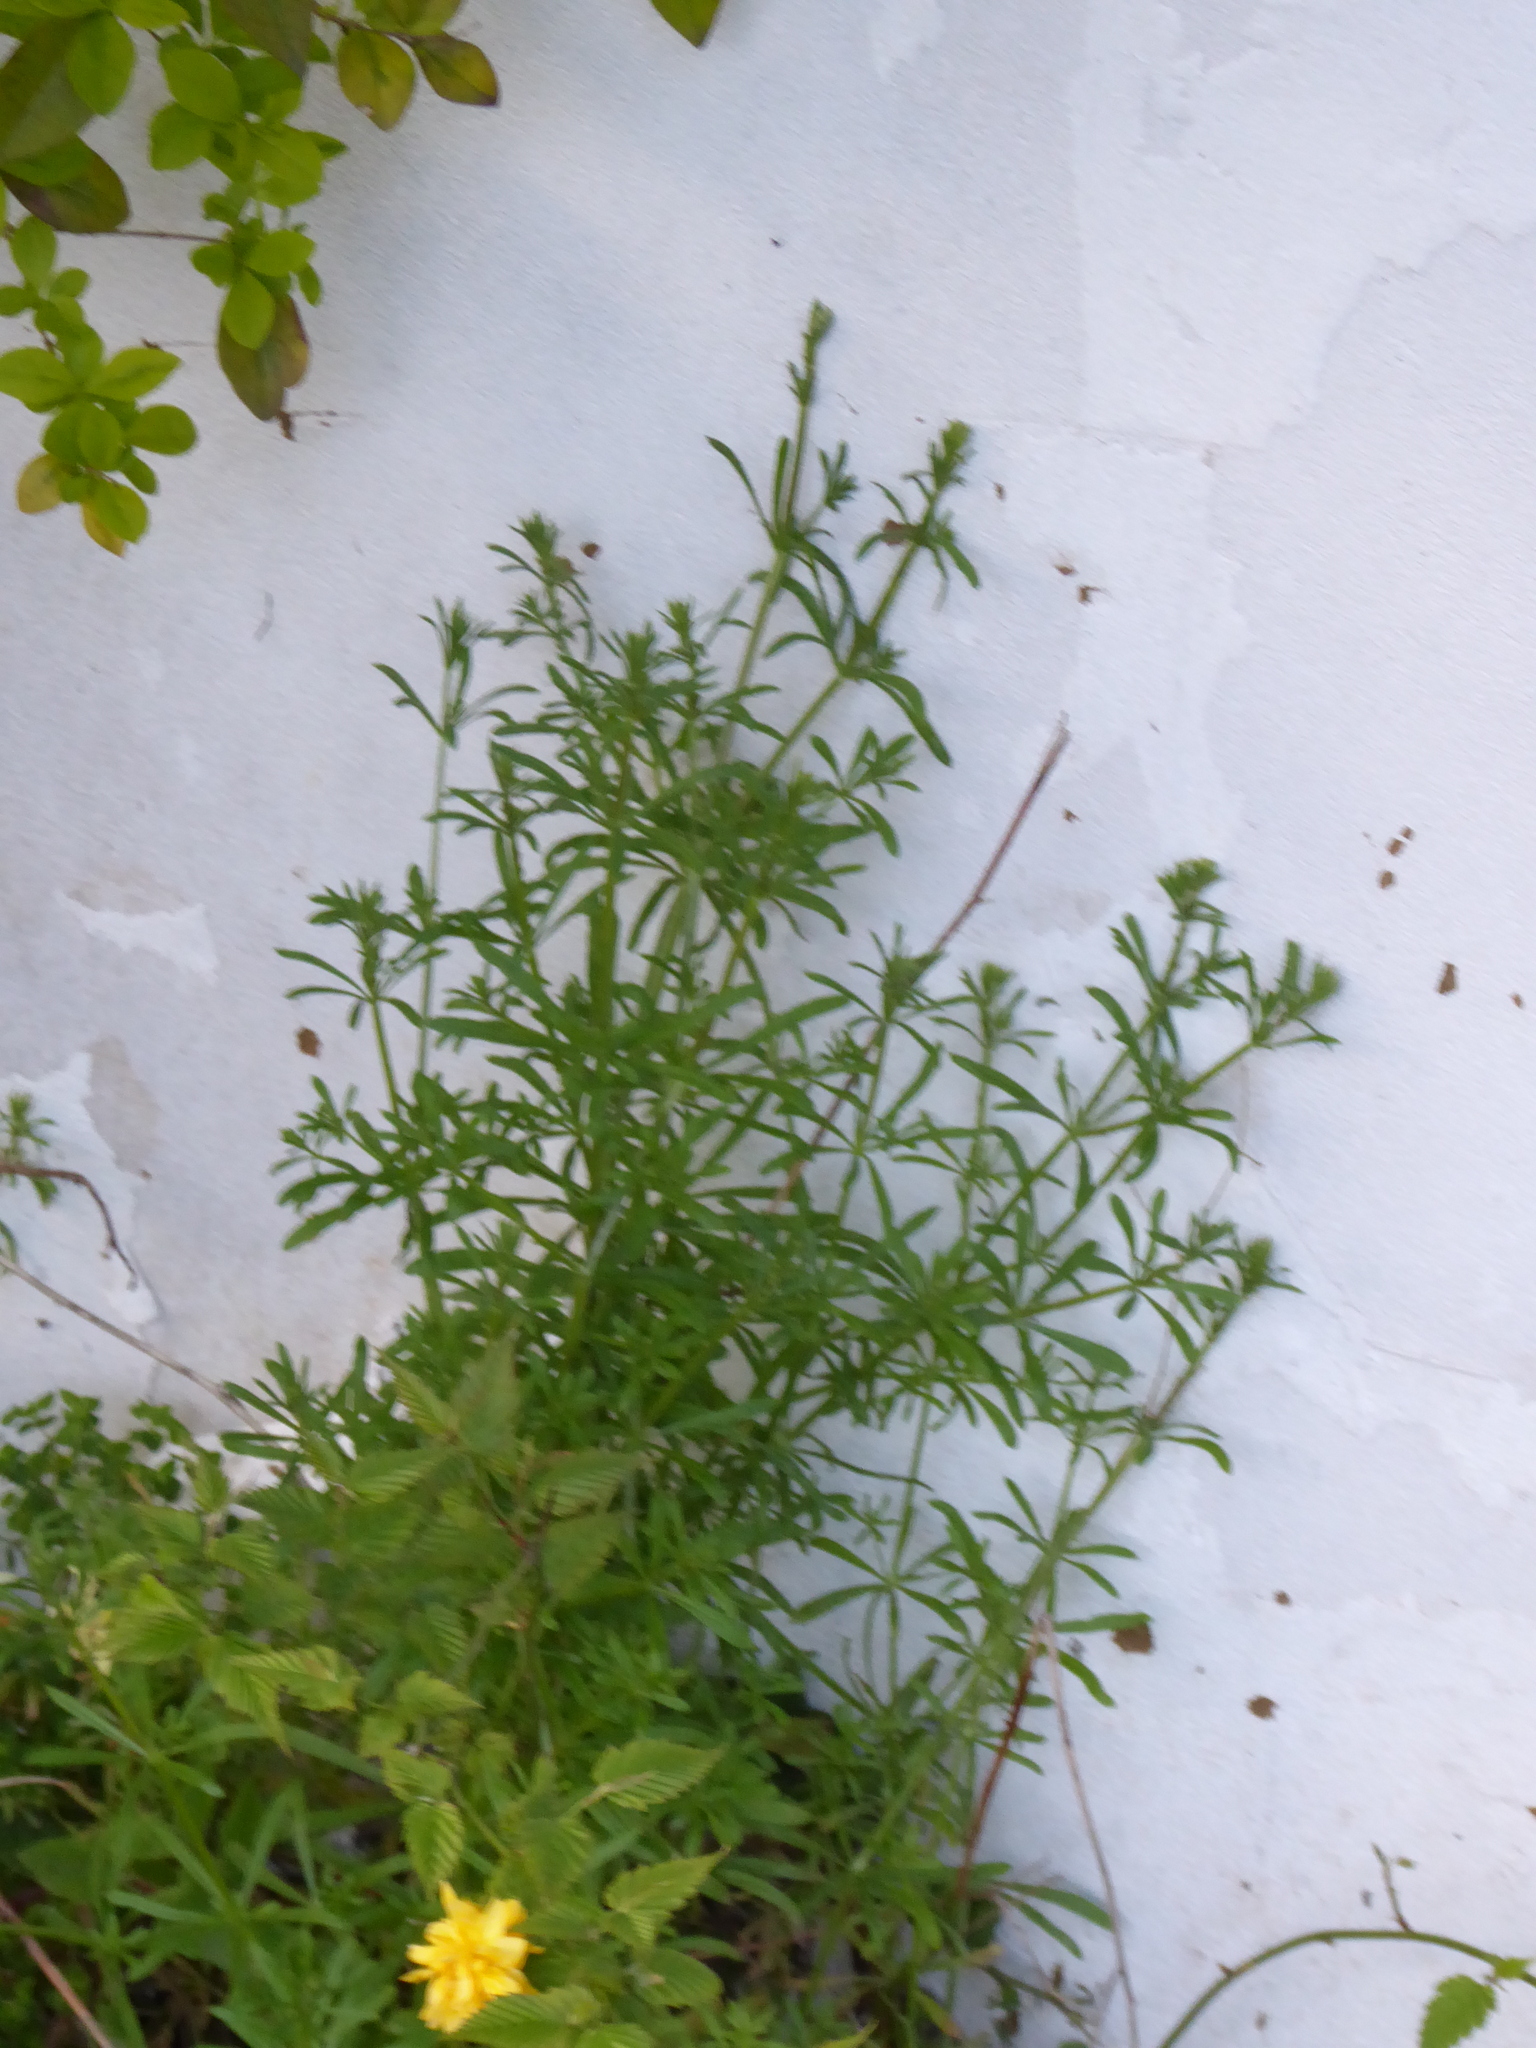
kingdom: Plantae
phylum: Tracheophyta
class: Magnoliopsida
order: Gentianales
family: Rubiaceae
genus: Galium
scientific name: Galium aparine
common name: Cleavers
